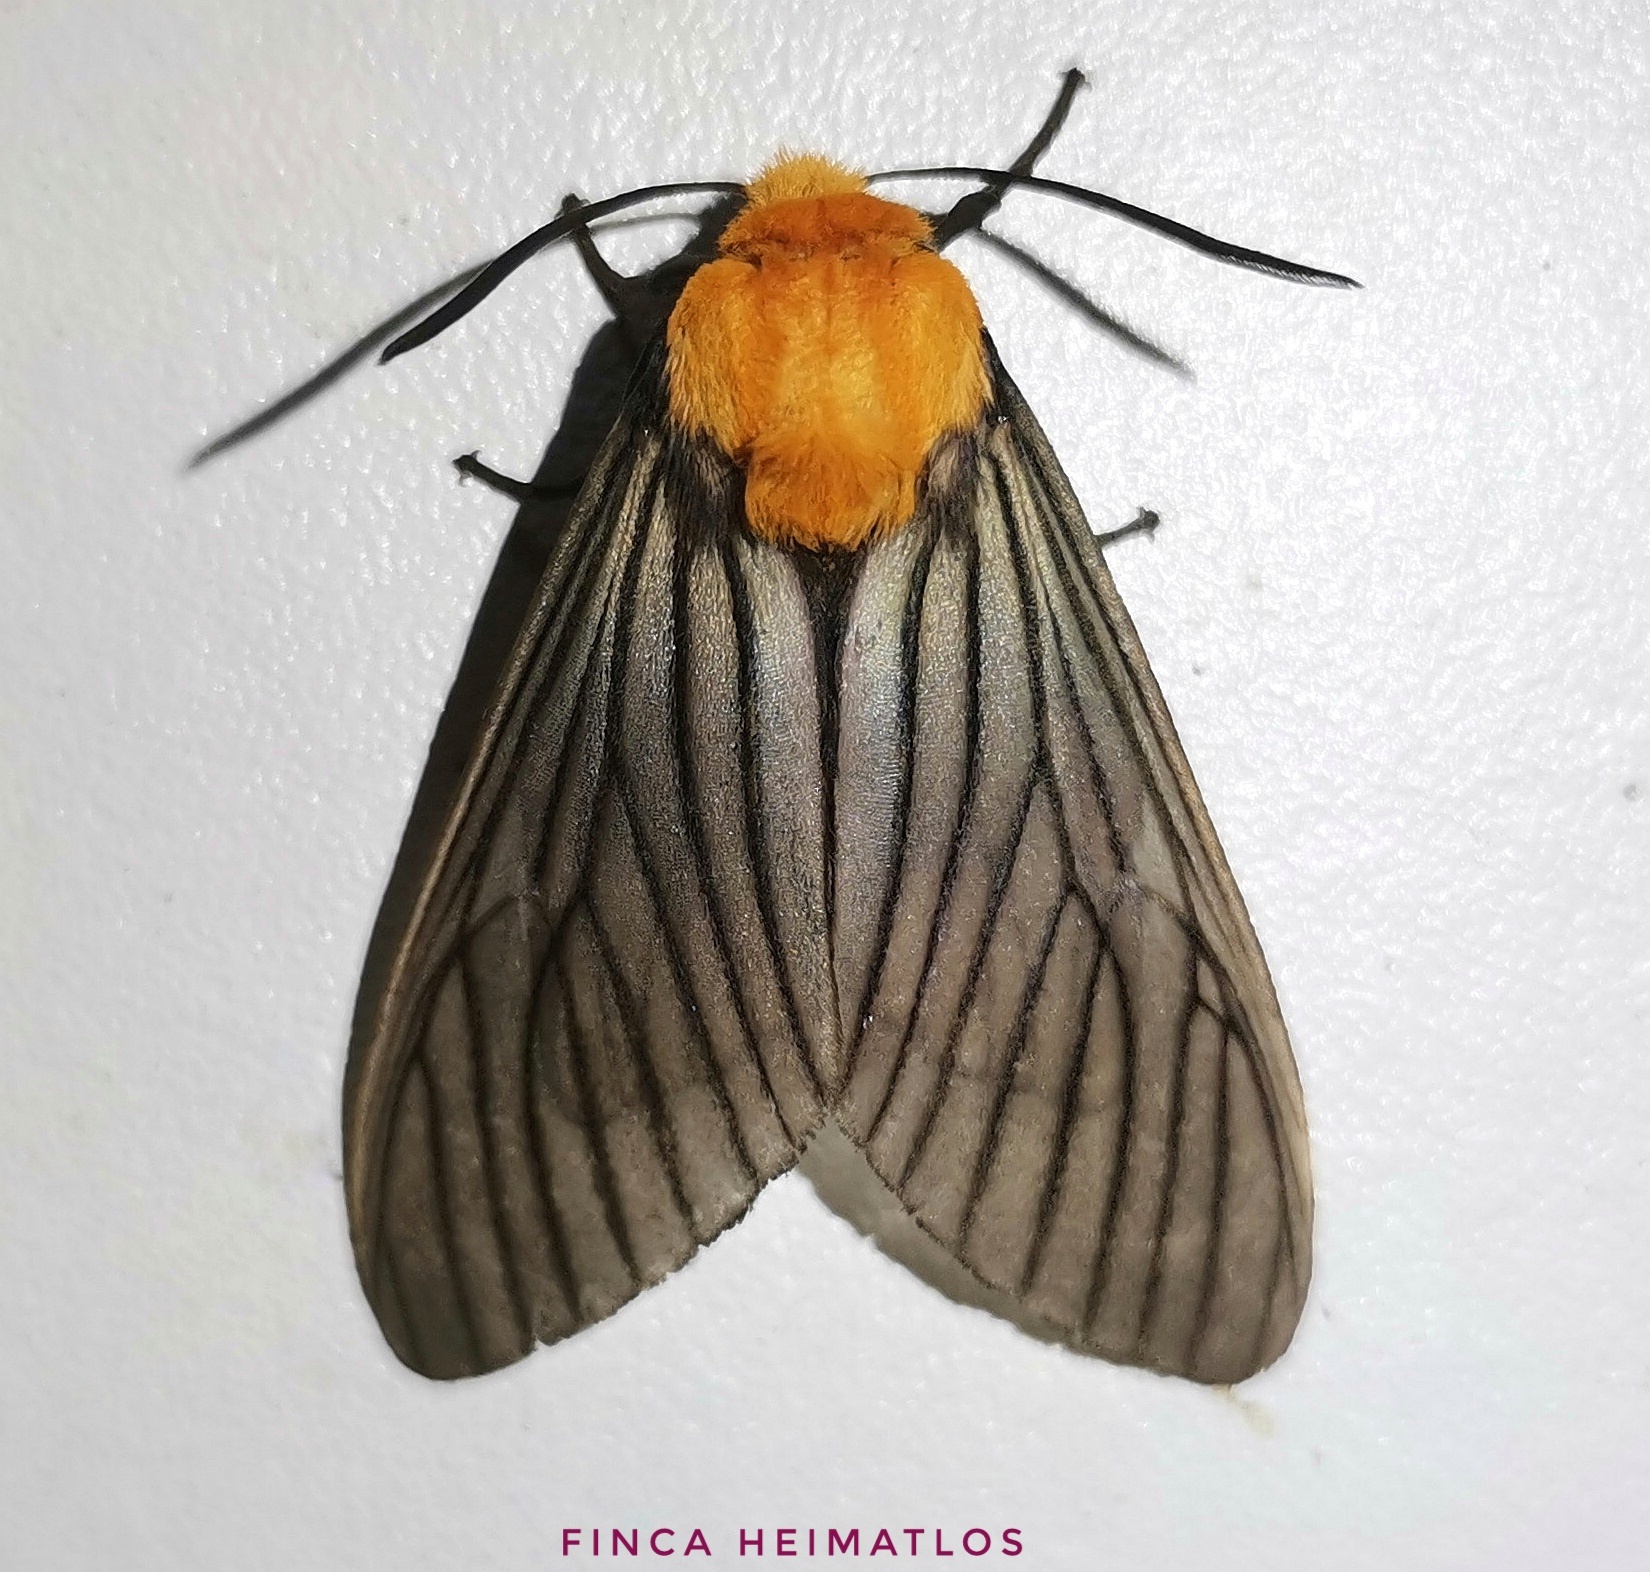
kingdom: Animalia
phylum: Arthropoda
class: Insecta
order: Lepidoptera
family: Erebidae
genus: Pseudischnocampa
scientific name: Pseudischnocampa humosa
